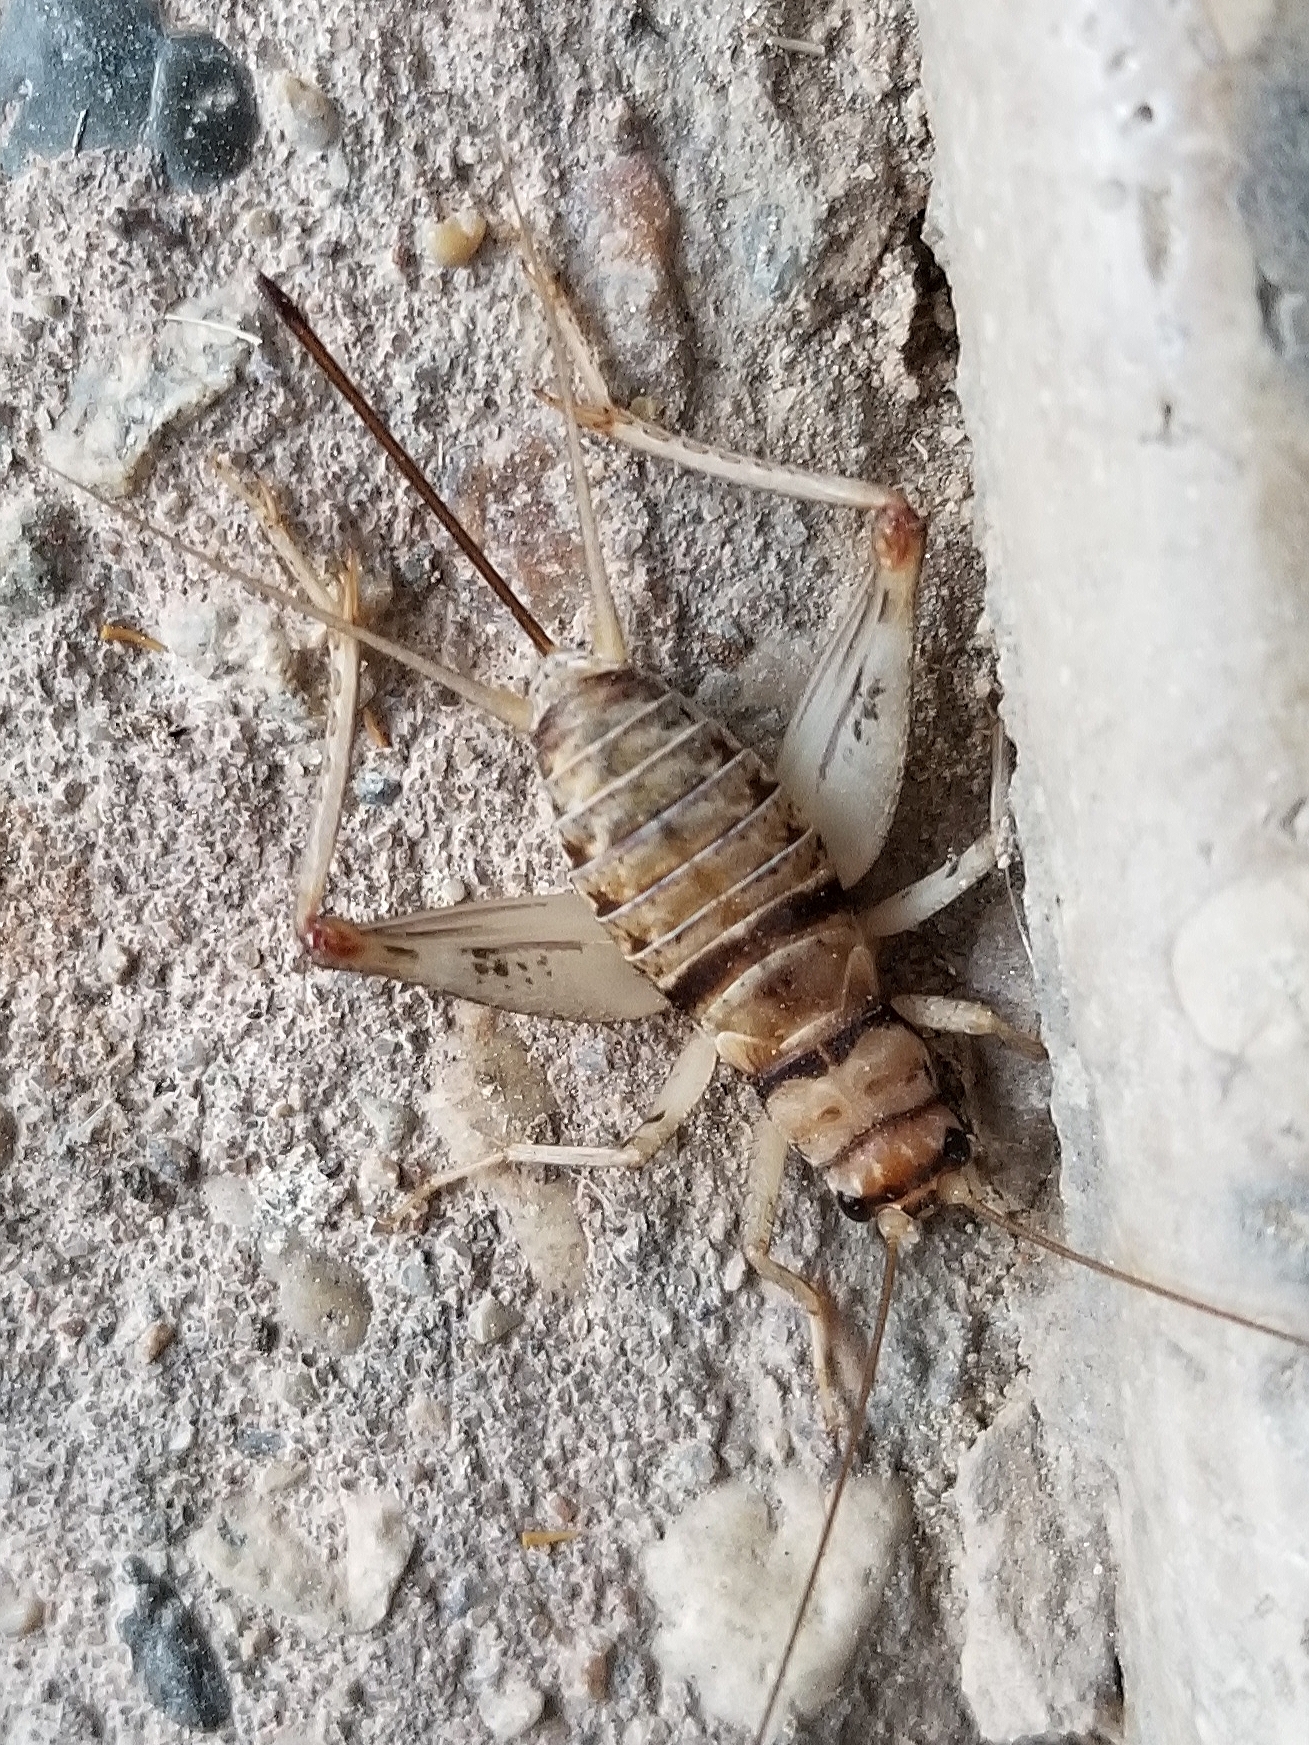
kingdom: Animalia
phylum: Arthropoda
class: Insecta
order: Orthoptera
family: Gryllidae
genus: Gryllodes
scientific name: Gryllodes sigillatus
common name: Tropical house cricket
